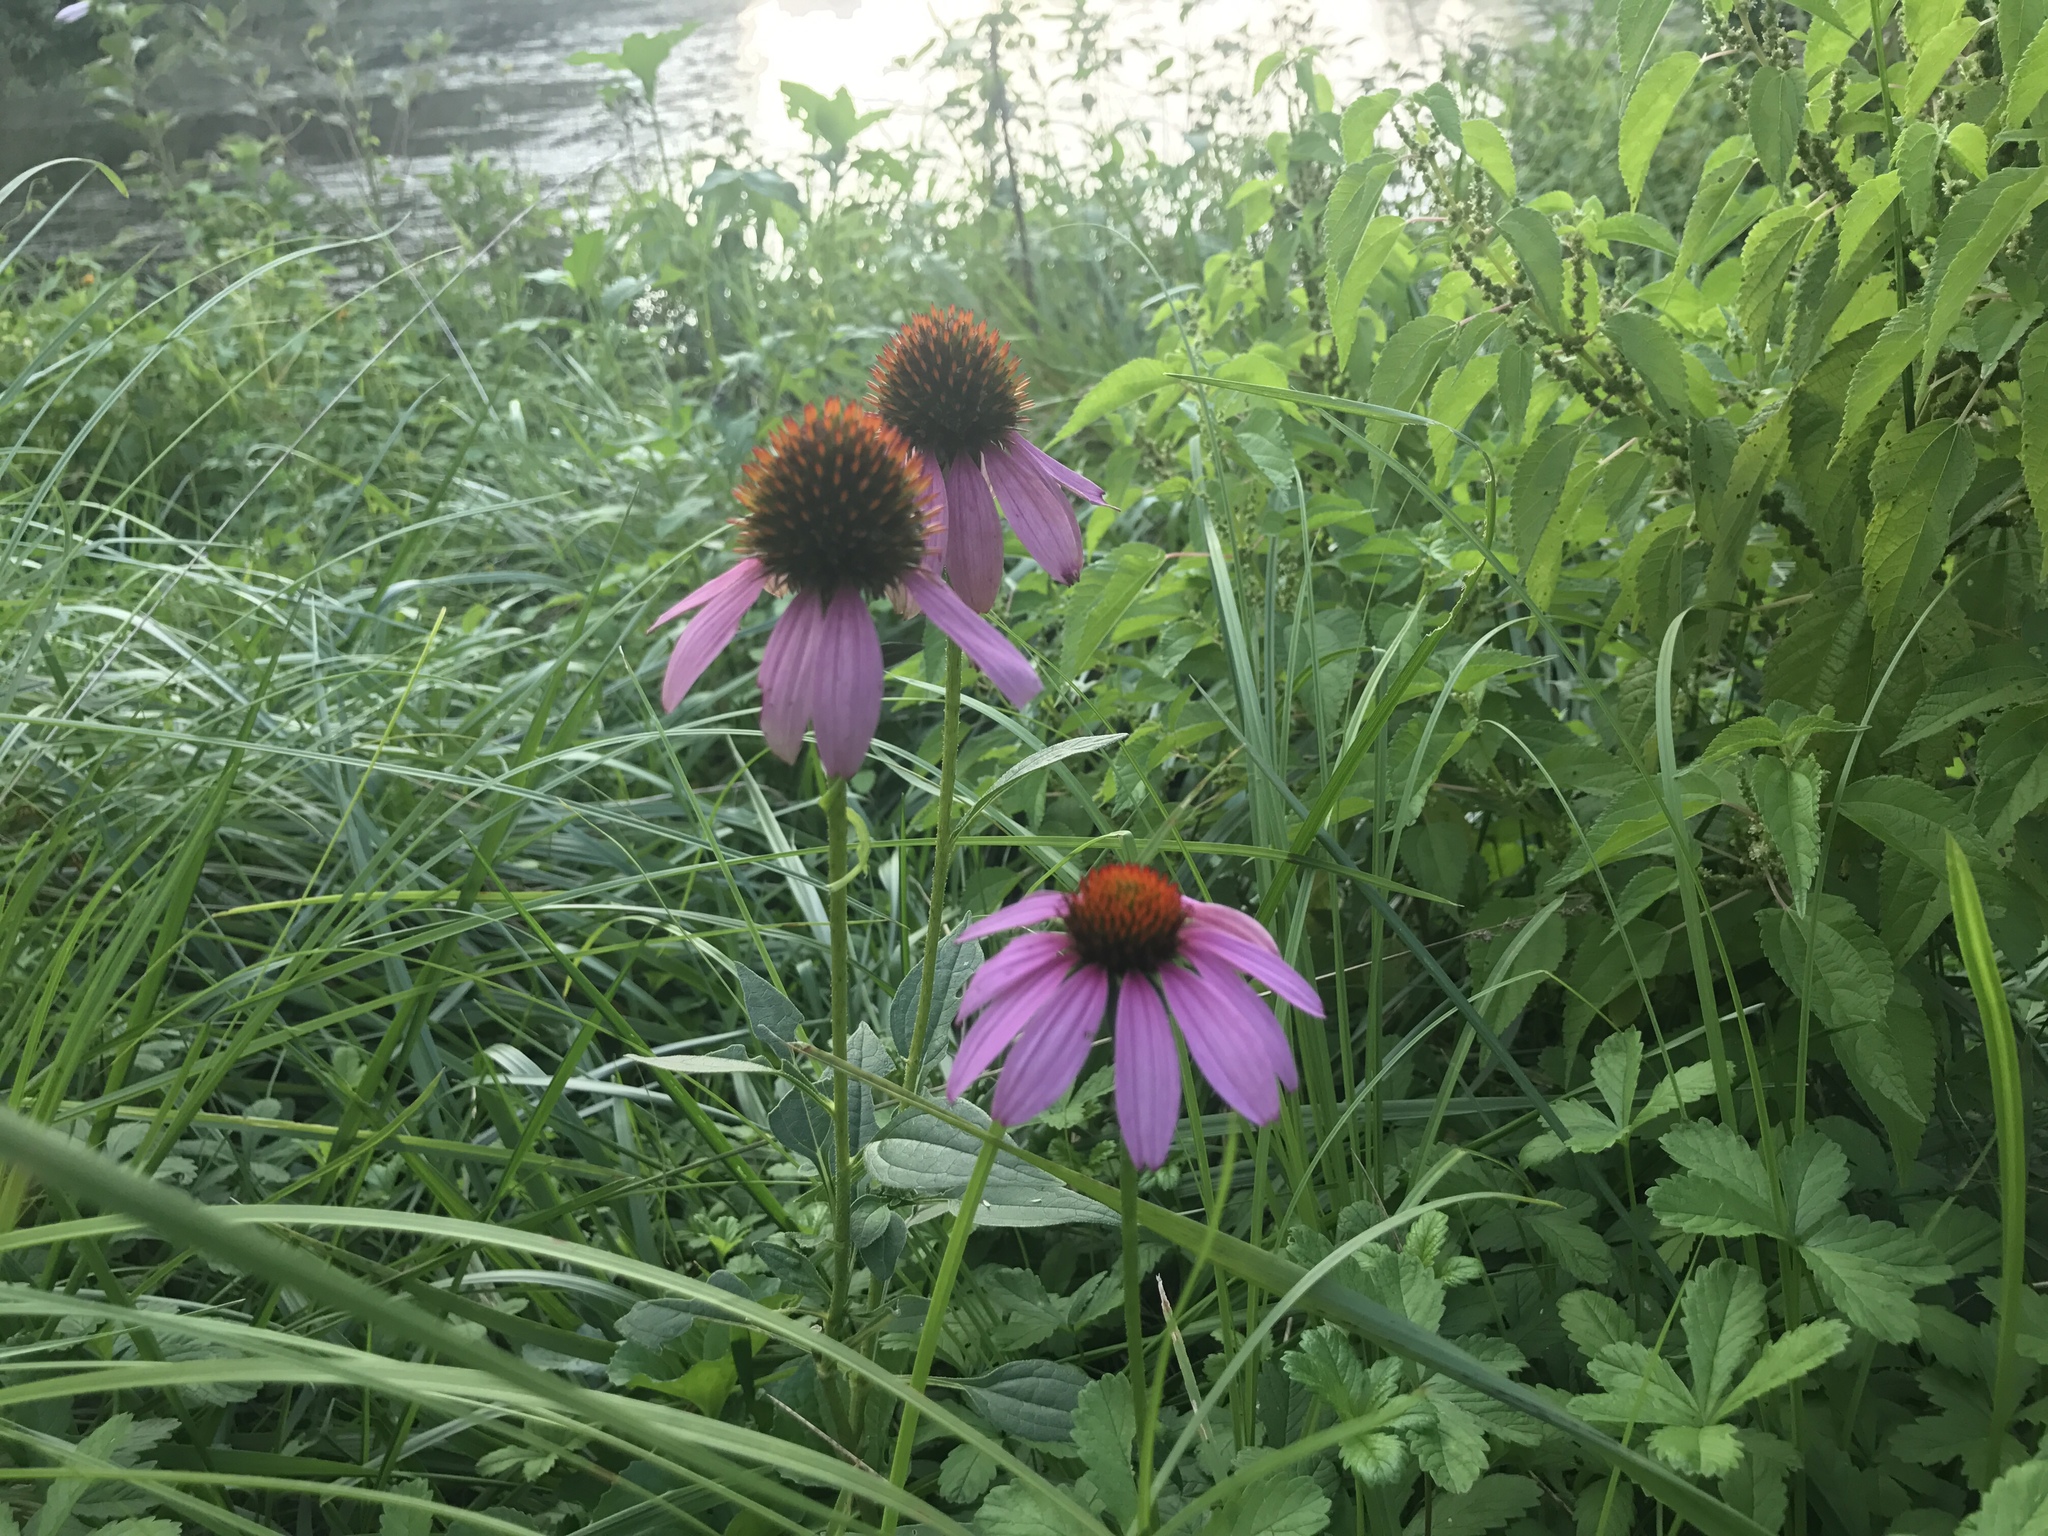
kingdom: Plantae
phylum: Tracheophyta
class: Magnoliopsida
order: Asterales
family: Asteraceae
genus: Echinacea
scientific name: Echinacea purpurea
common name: Broad-leaved purple coneflower
